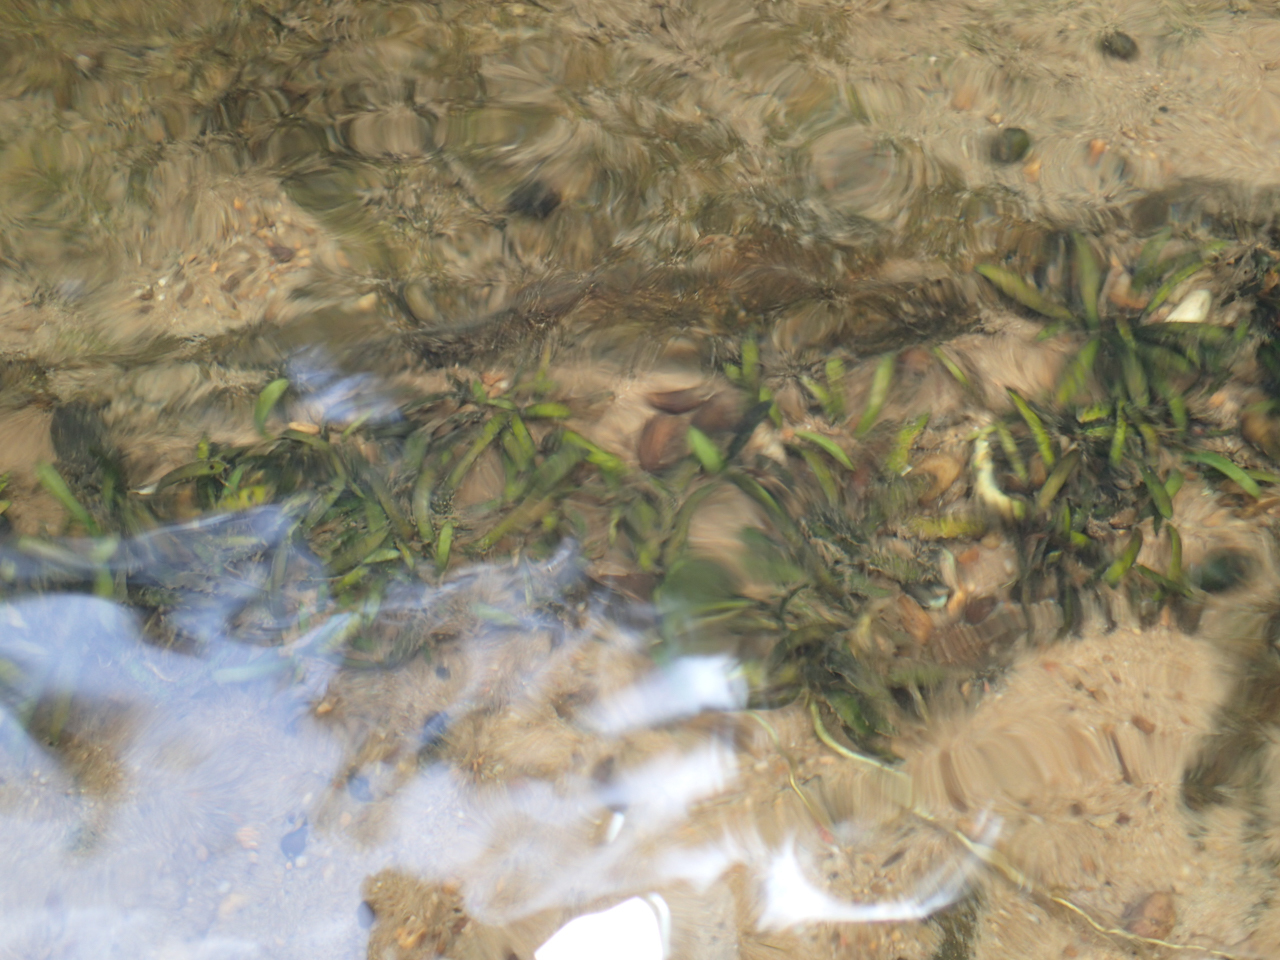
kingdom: Plantae
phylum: Tracheophyta
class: Liliopsida
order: Alismatales
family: Alismataceae
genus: Sagittaria
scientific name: Sagittaria secundifolia
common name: Kral's-water-plantain
